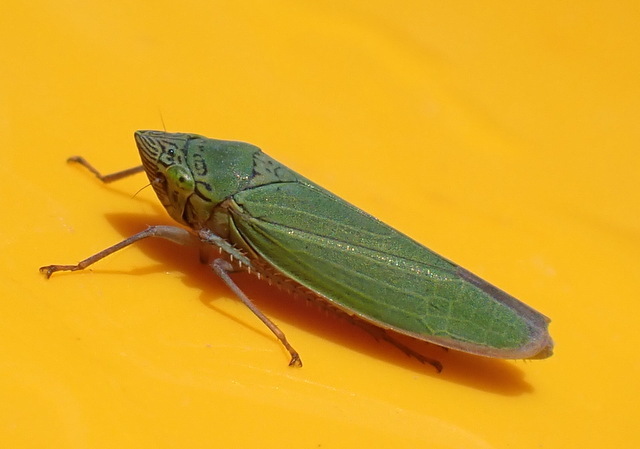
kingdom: Animalia
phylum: Arthropoda
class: Insecta
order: Hemiptera
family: Cicadellidae
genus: Draeculacephala
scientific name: Draeculacephala inscripta
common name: Leafhopper
